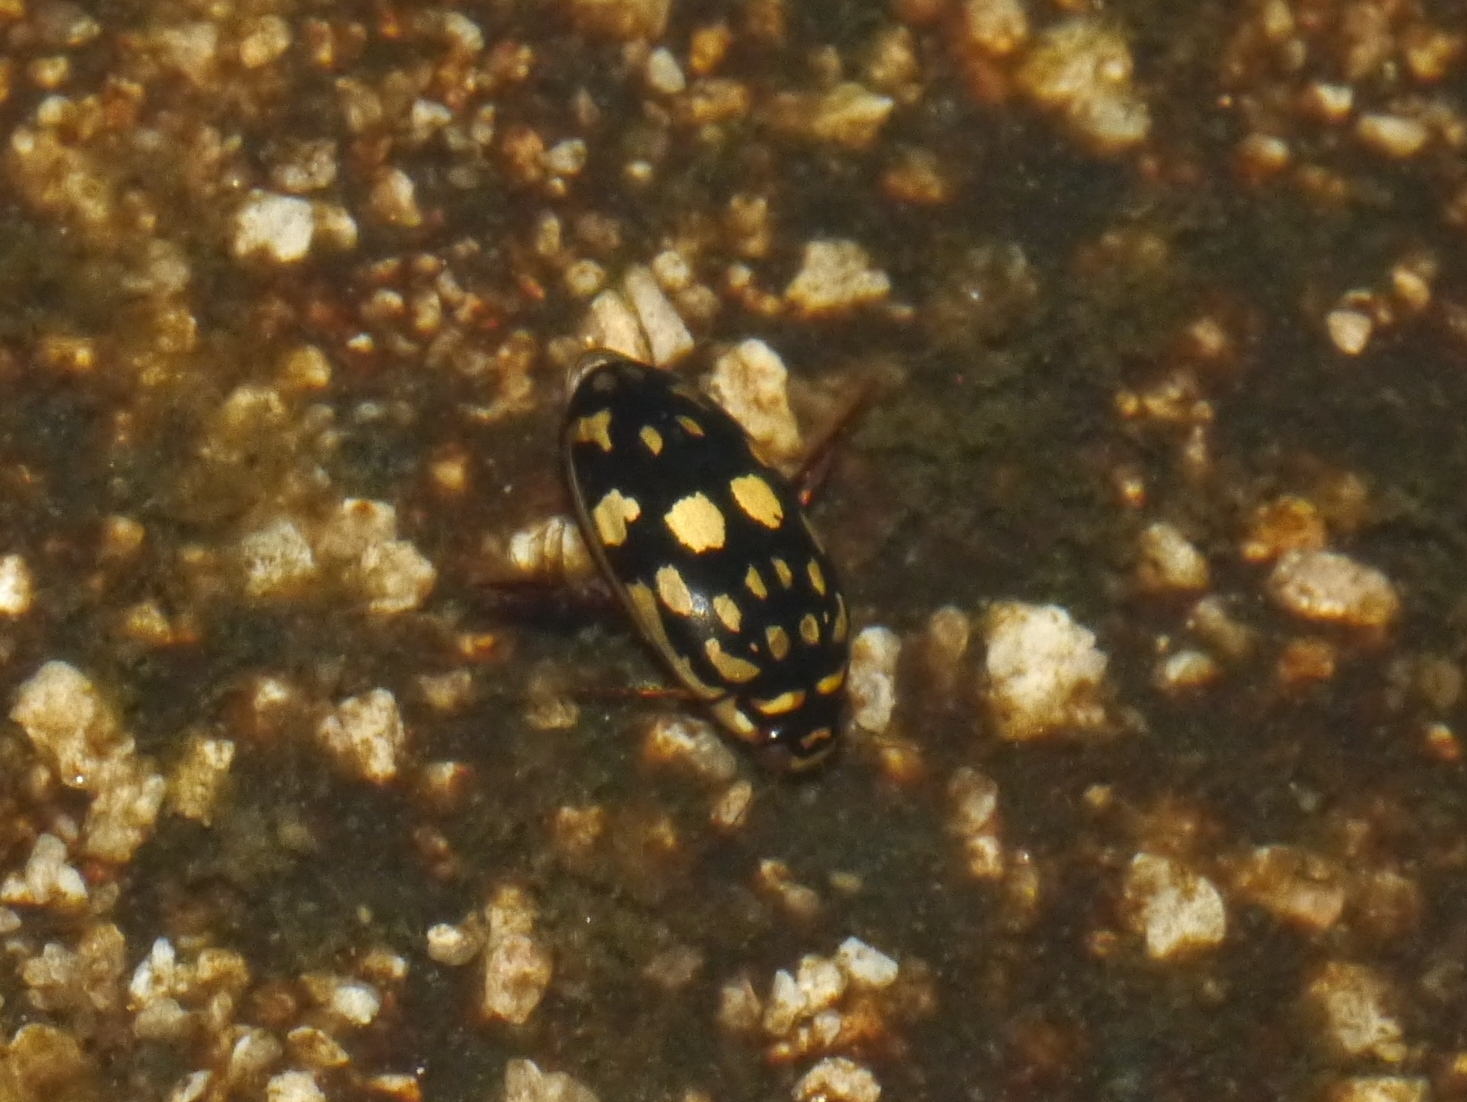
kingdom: Animalia
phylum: Arthropoda
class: Insecta
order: Coleoptera
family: Dytiscidae
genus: Thermonectus
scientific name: Thermonectus marmoratus
